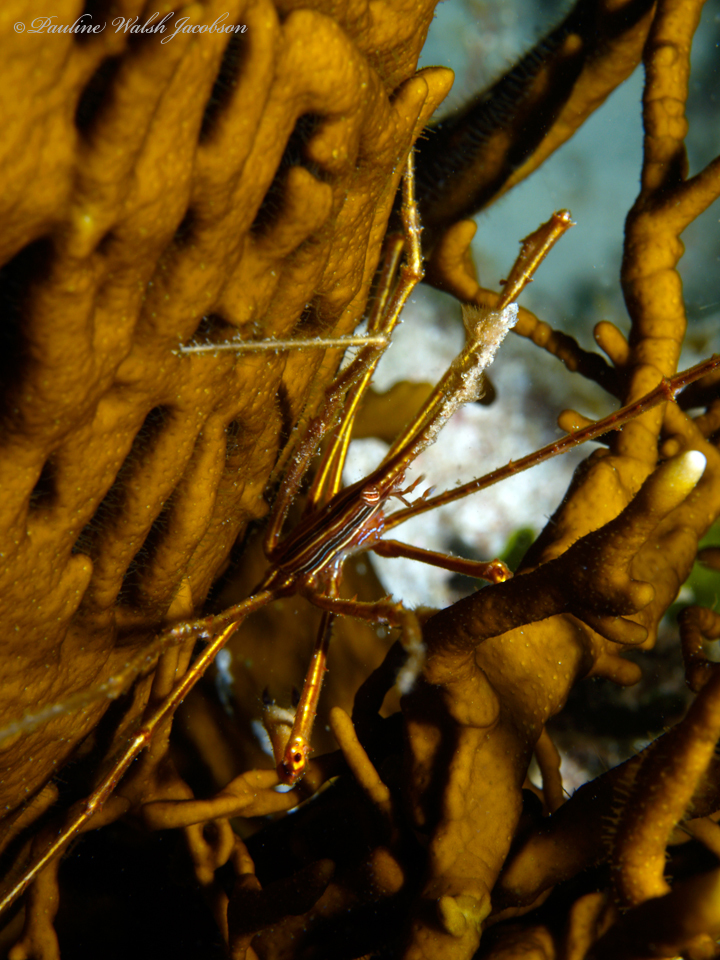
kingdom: Animalia
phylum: Arthropoda
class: Malacostraca
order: Decapoda
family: Inachoididae
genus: Stenorhynchus
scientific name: Stenorhynchus seticornis
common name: Arrow crab
